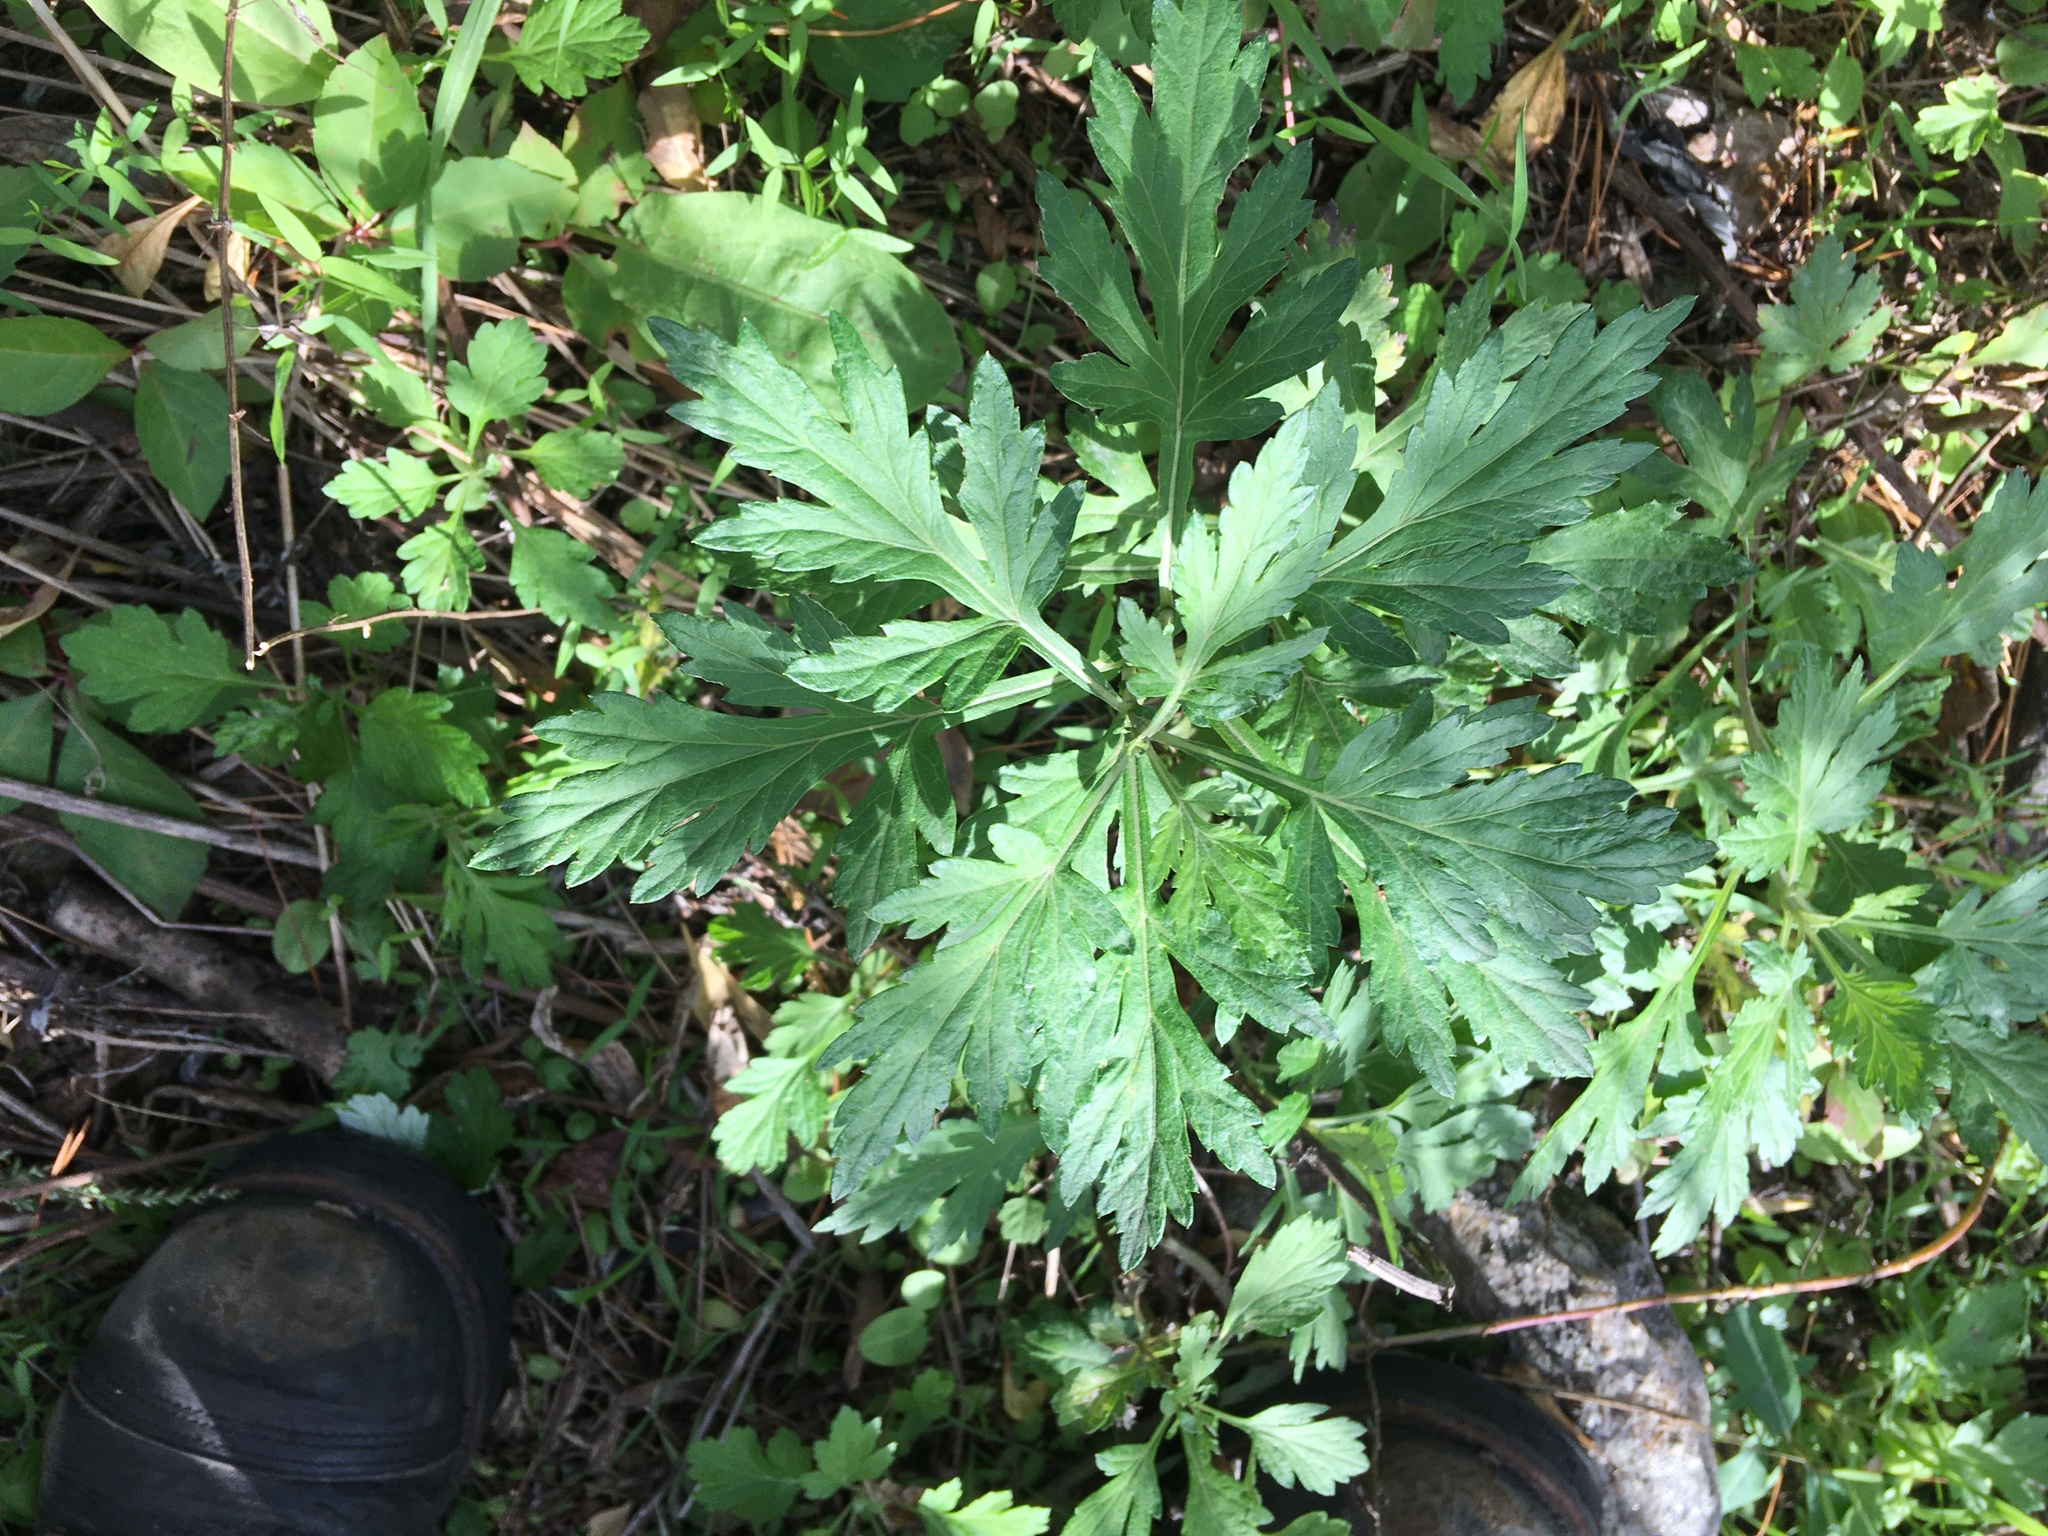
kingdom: Plantae
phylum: Tracheophyta
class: Magnoliopsida
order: Asterales
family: Asteraceae
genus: Artemisia
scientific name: Artemisia vulgaris
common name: Mugwort
